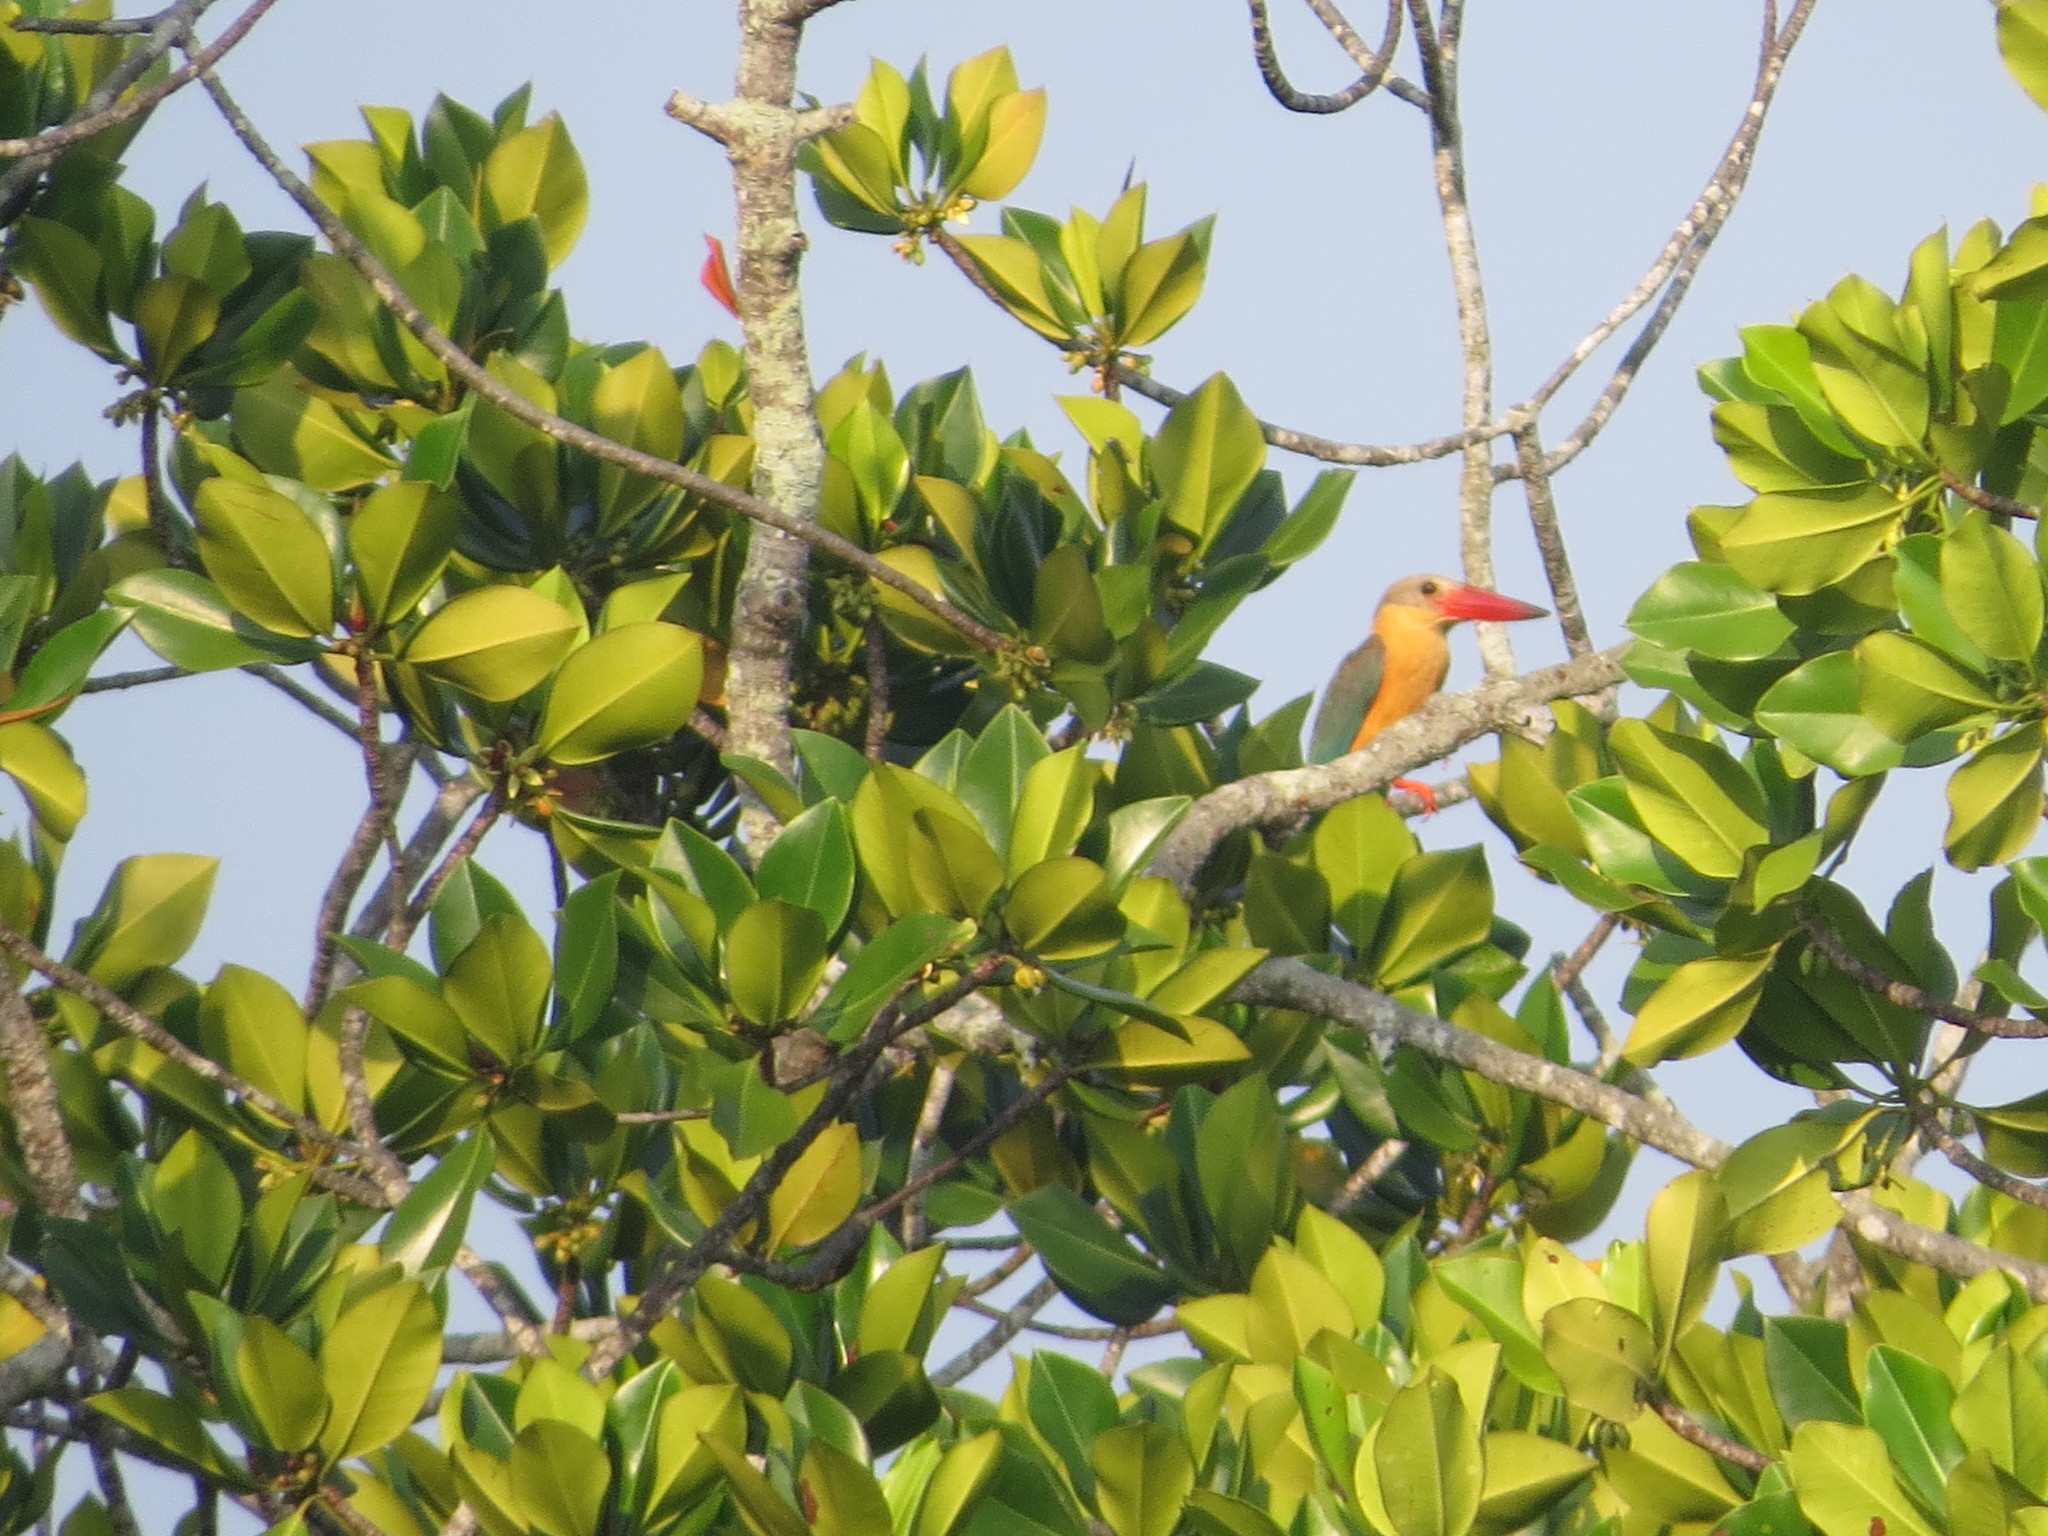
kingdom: Animalia
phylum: Chordata
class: Aves
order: Coraciiformes
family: Alcedinidae
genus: Pelargopsis
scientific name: Pelargopsis capensis
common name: Stork-billed kingfisher
